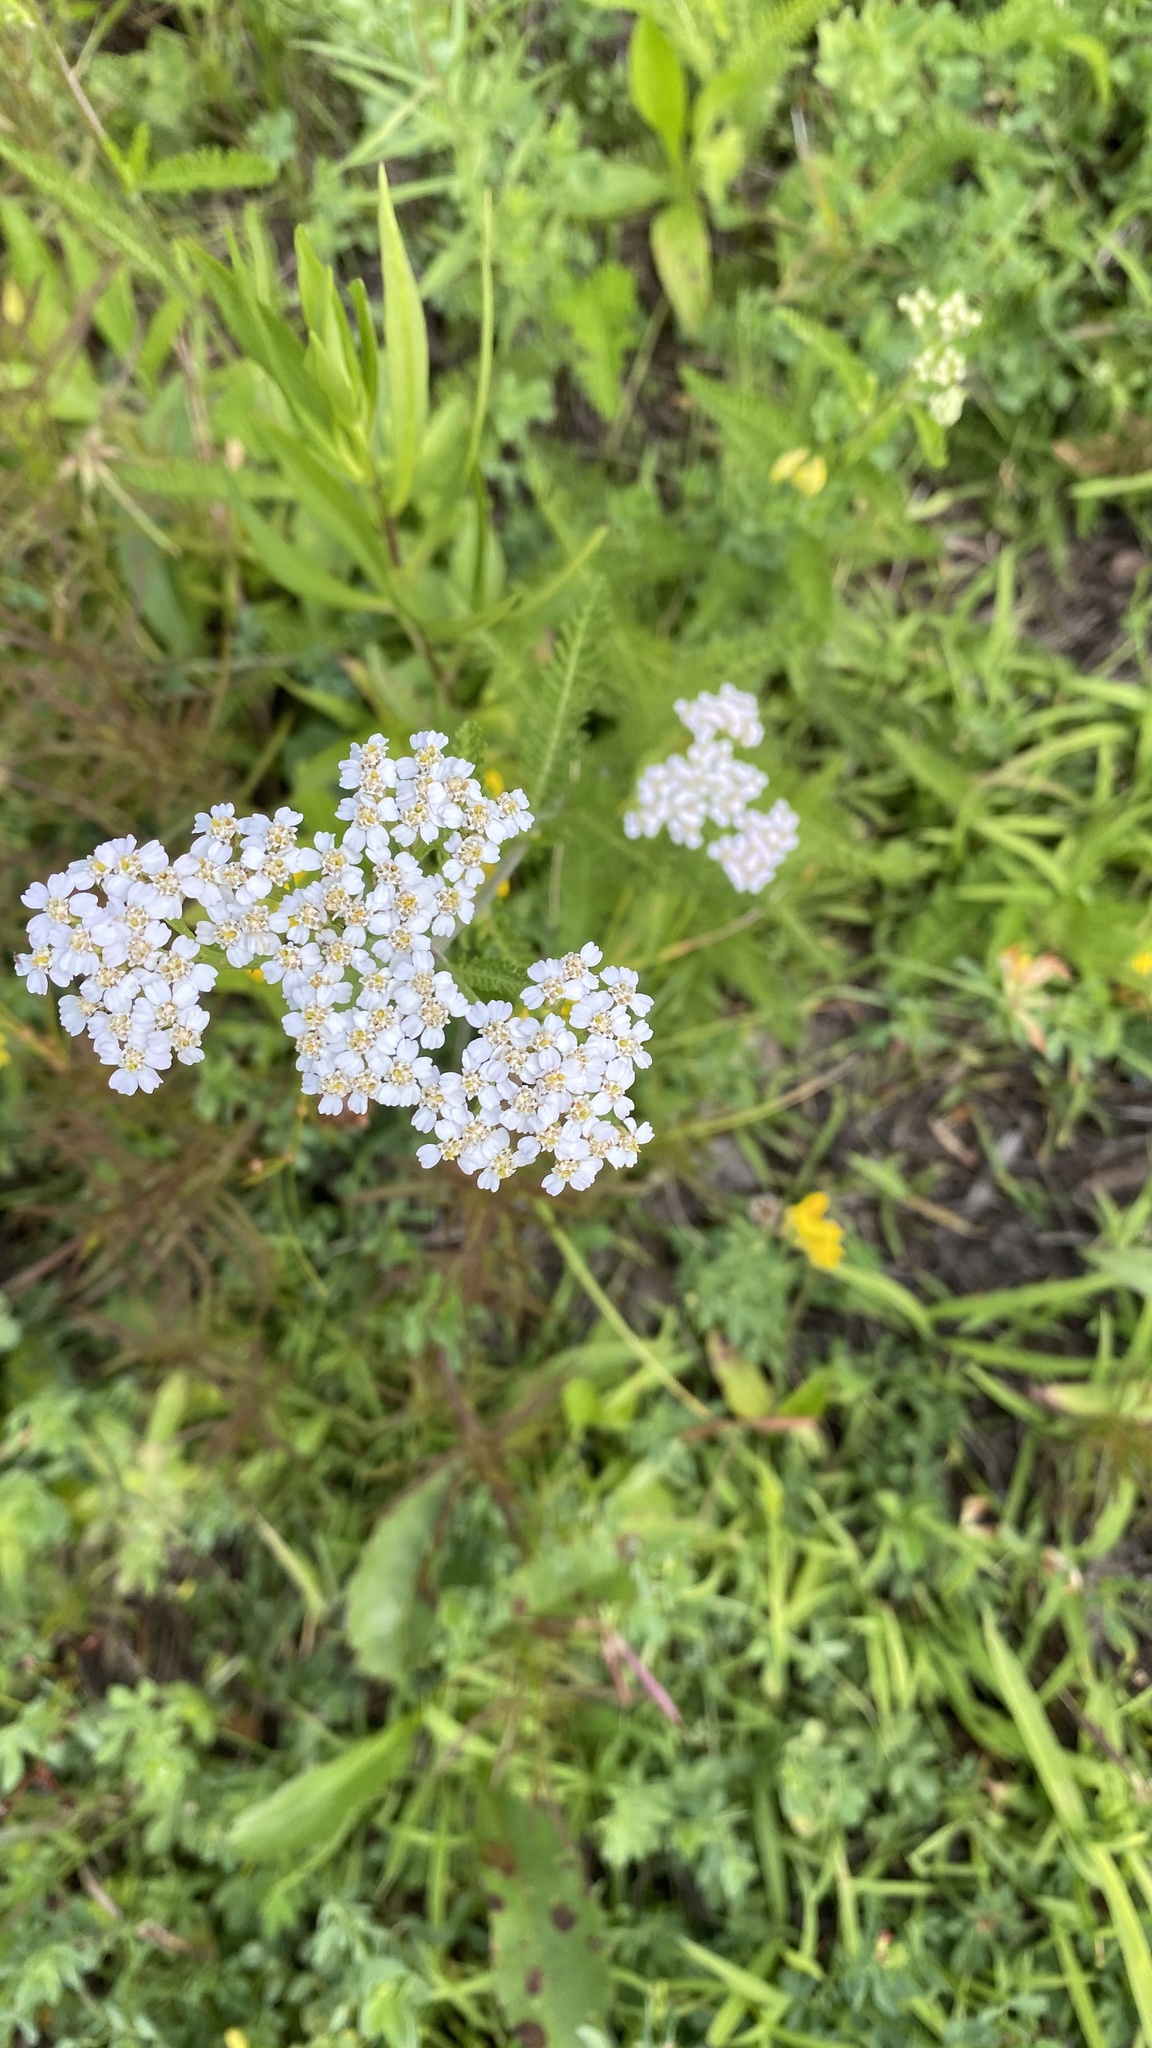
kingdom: Plantae
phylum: Tracheophyta
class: Magnoliopsida
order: Asterales
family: Asteraceae
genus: Achillea
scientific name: Achillea millefolium
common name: Yarrow
